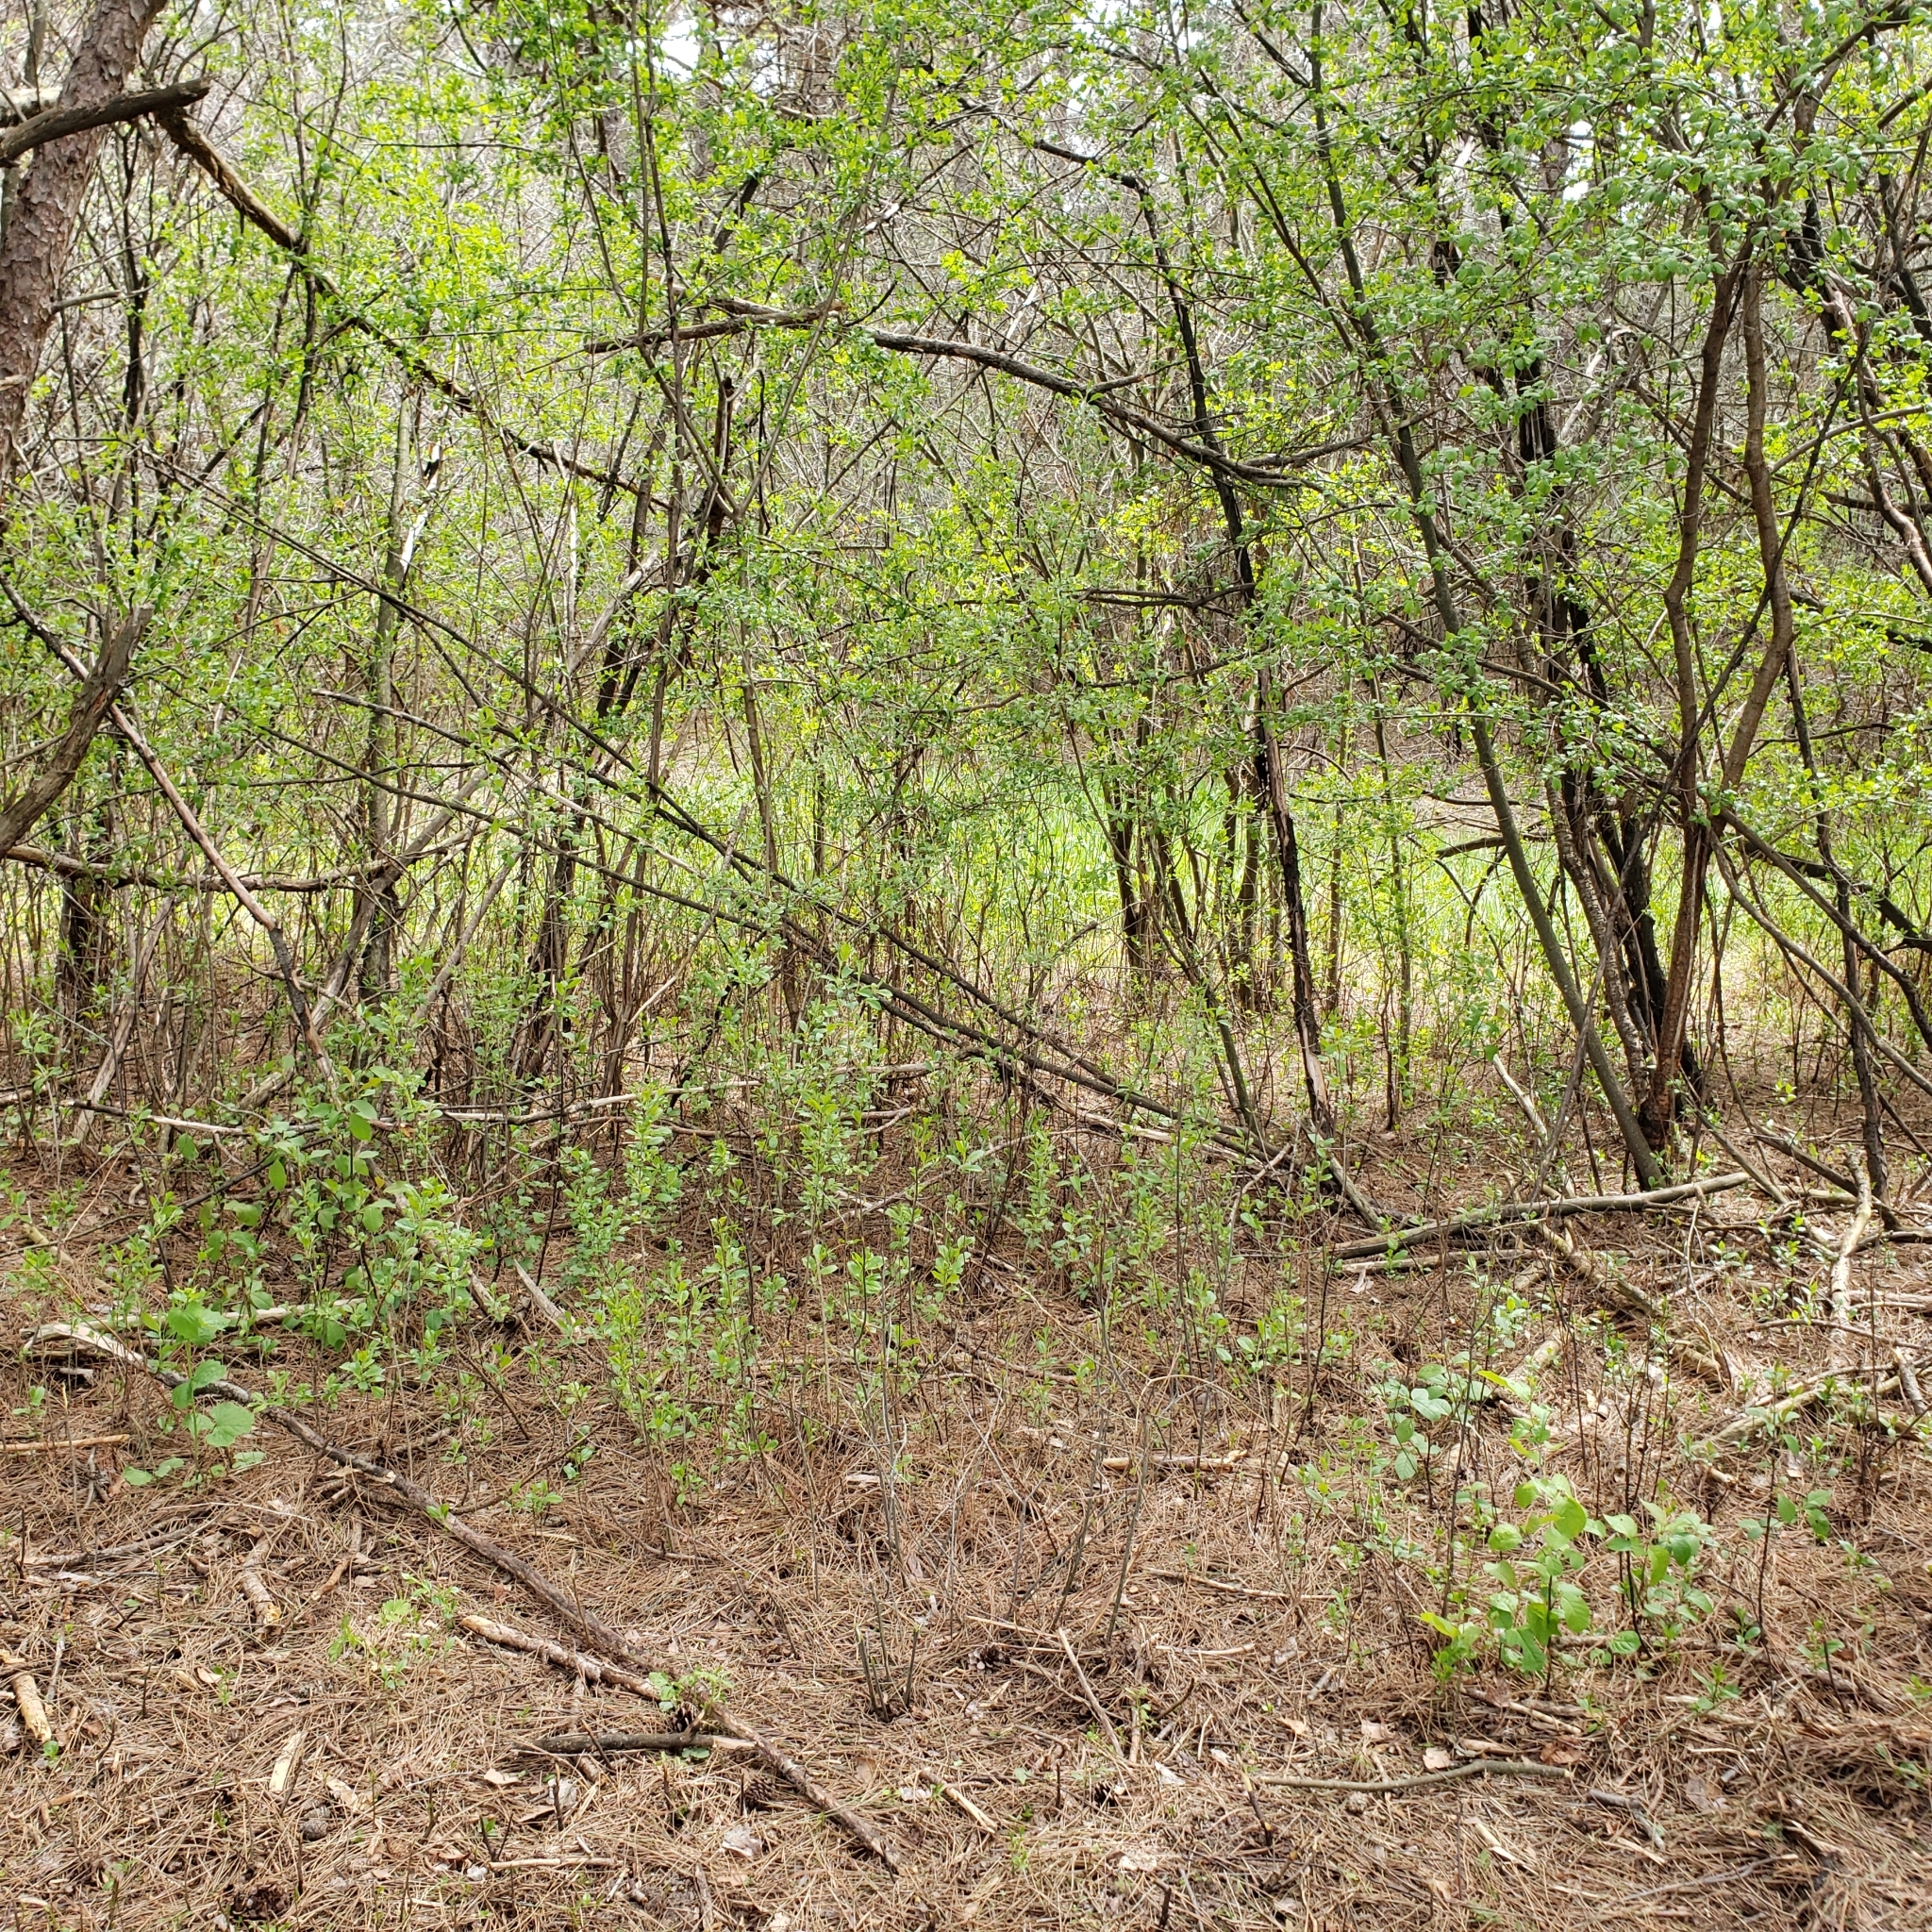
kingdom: Plantae
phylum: Tracheophyta
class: Magnoliopsida
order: Rosales
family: Rhamnaceae
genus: Rhamnus
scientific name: Rhamnus cathartica
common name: Common buckthorn
